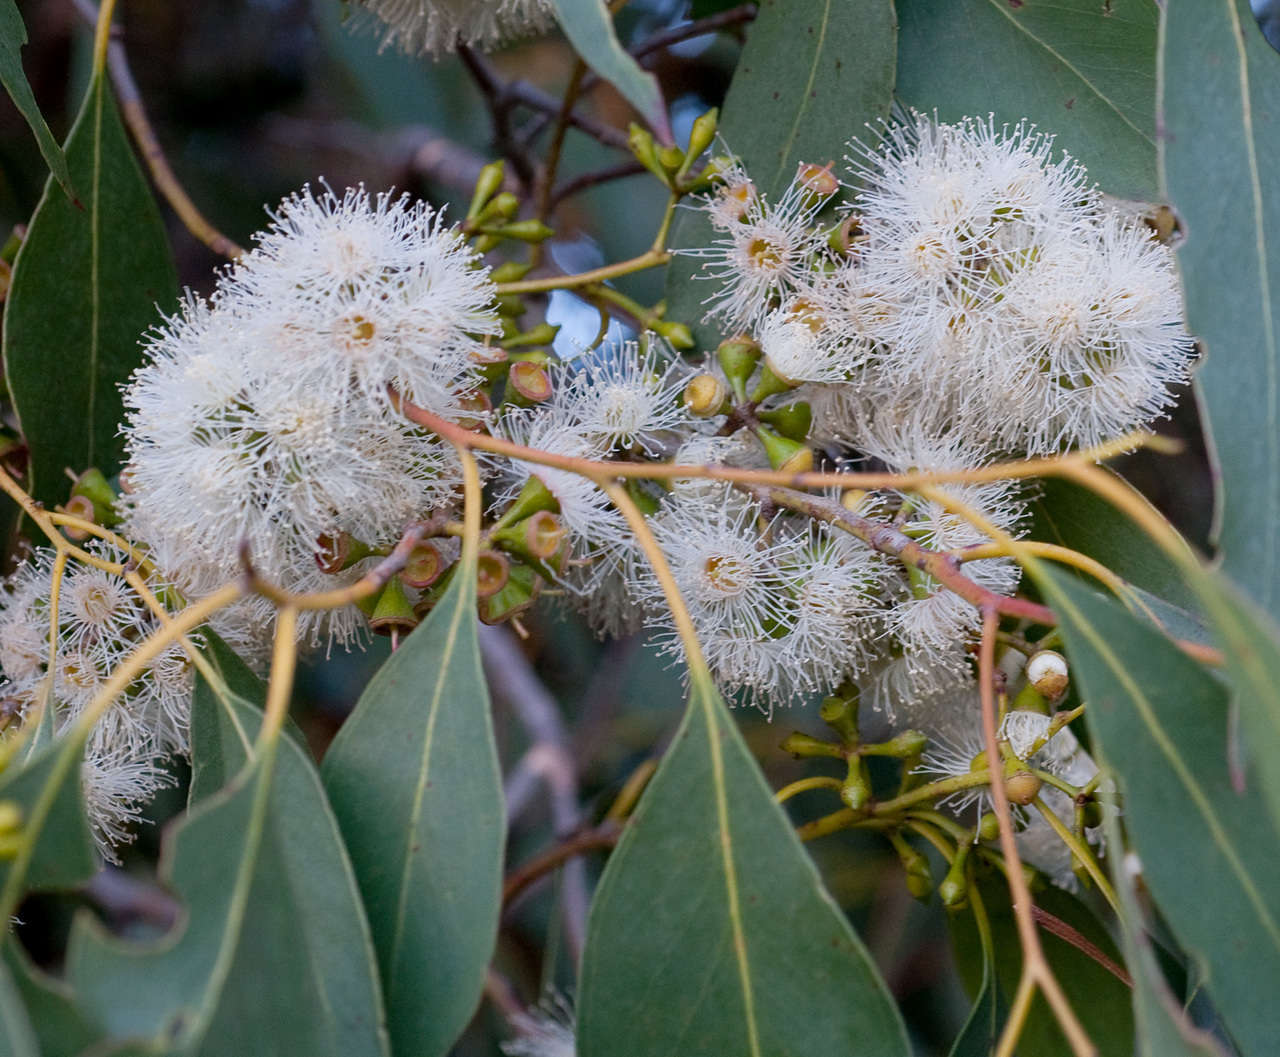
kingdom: Plantae
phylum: Tracheophyta
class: Magnoliopsida
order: Myrtales
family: Myrtaceae
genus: Eucalyptus
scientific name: Eucalyptus ovata
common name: Black-gum
